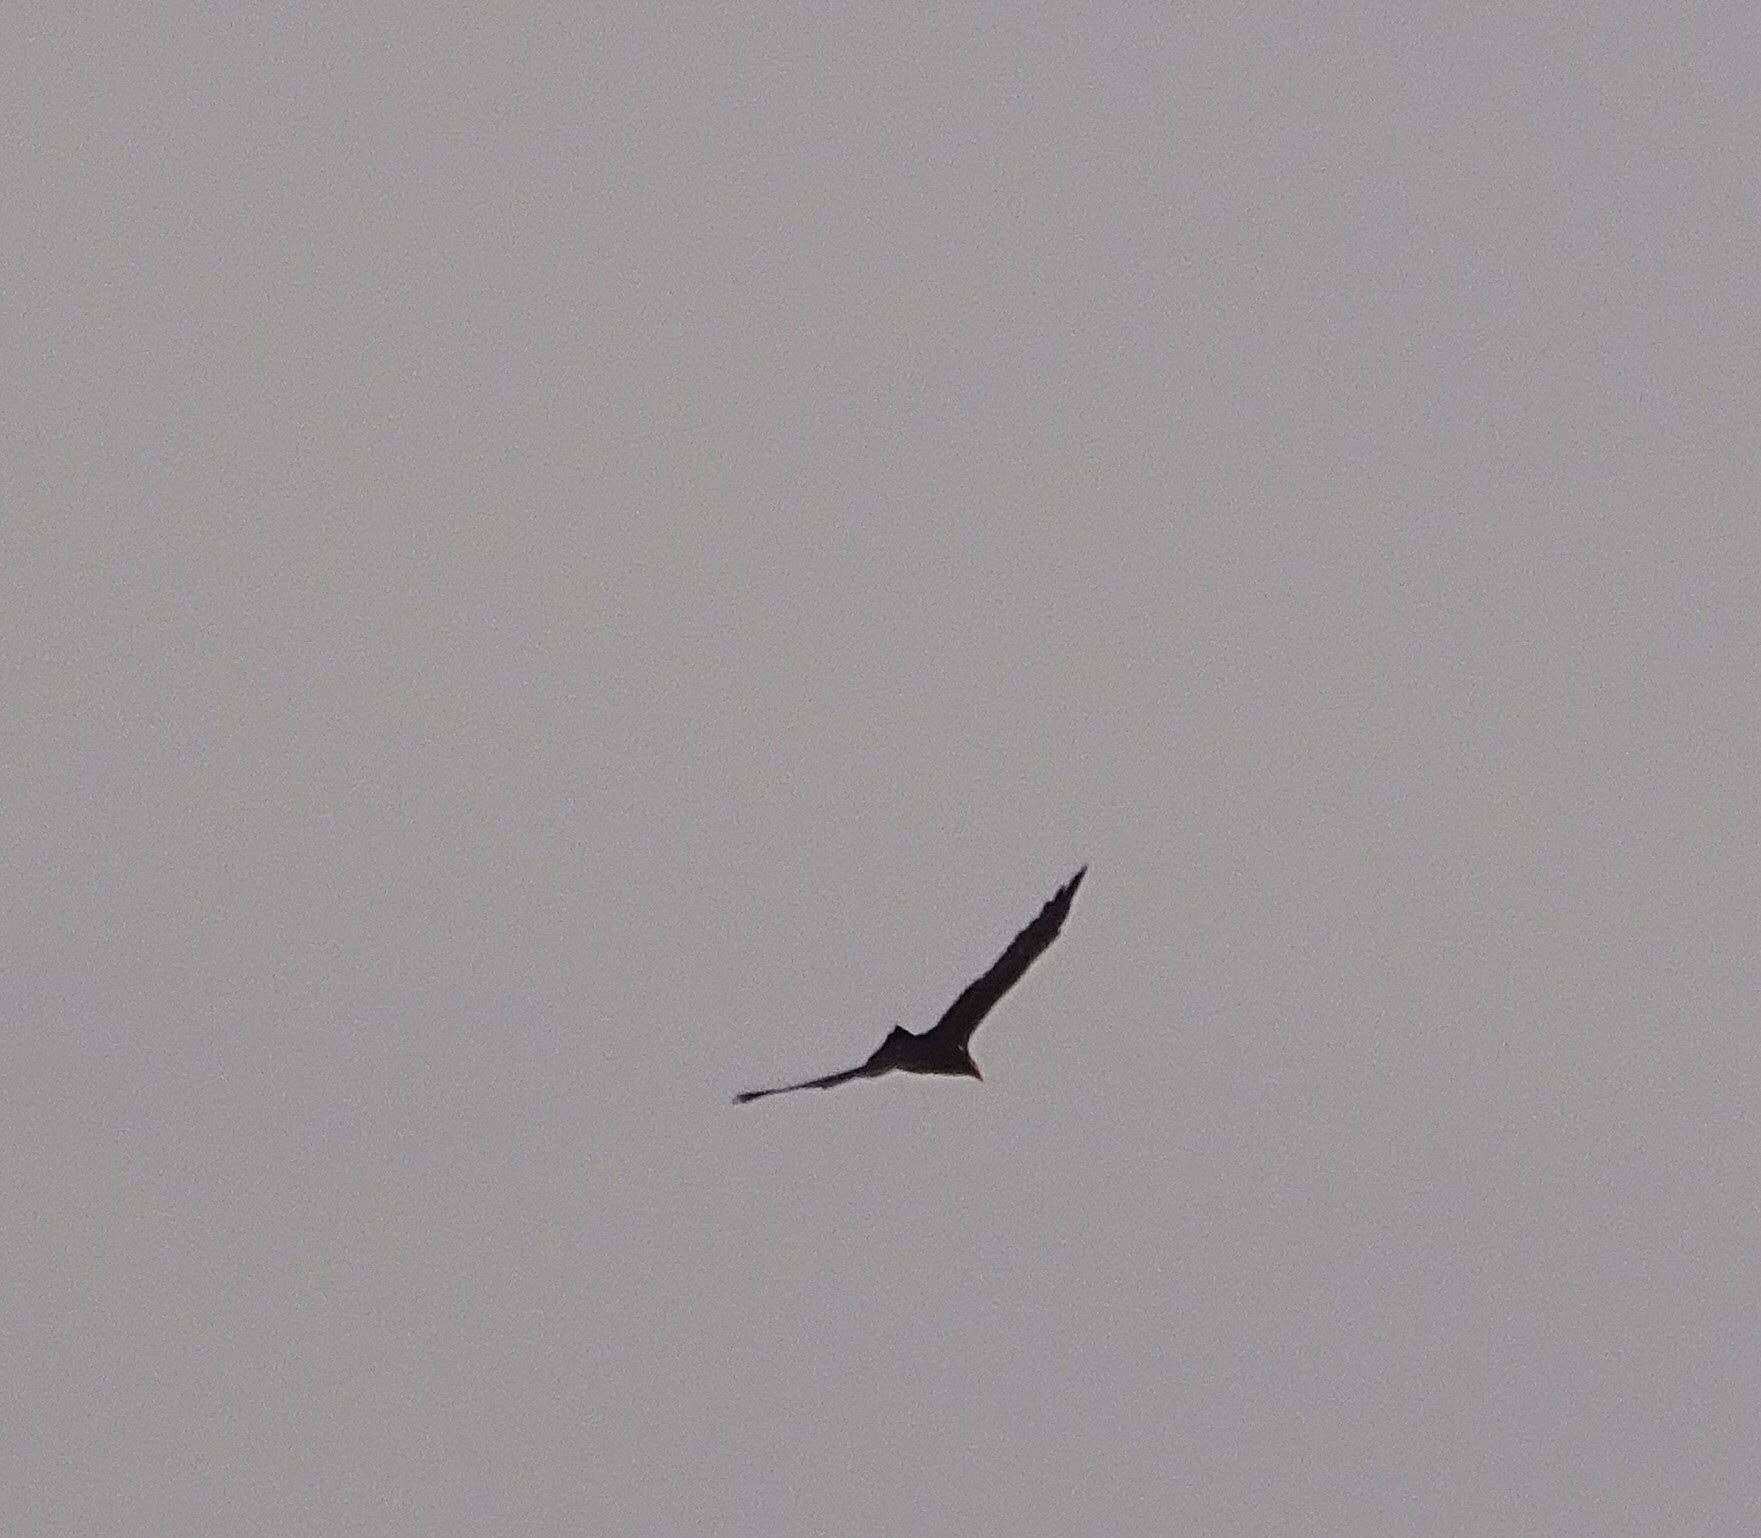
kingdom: Animalia
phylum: Chordata
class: Aves
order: Accipitriformes
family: Cathartidae
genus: Cathartes
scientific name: Cathartes aura
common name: Turkey vulture
